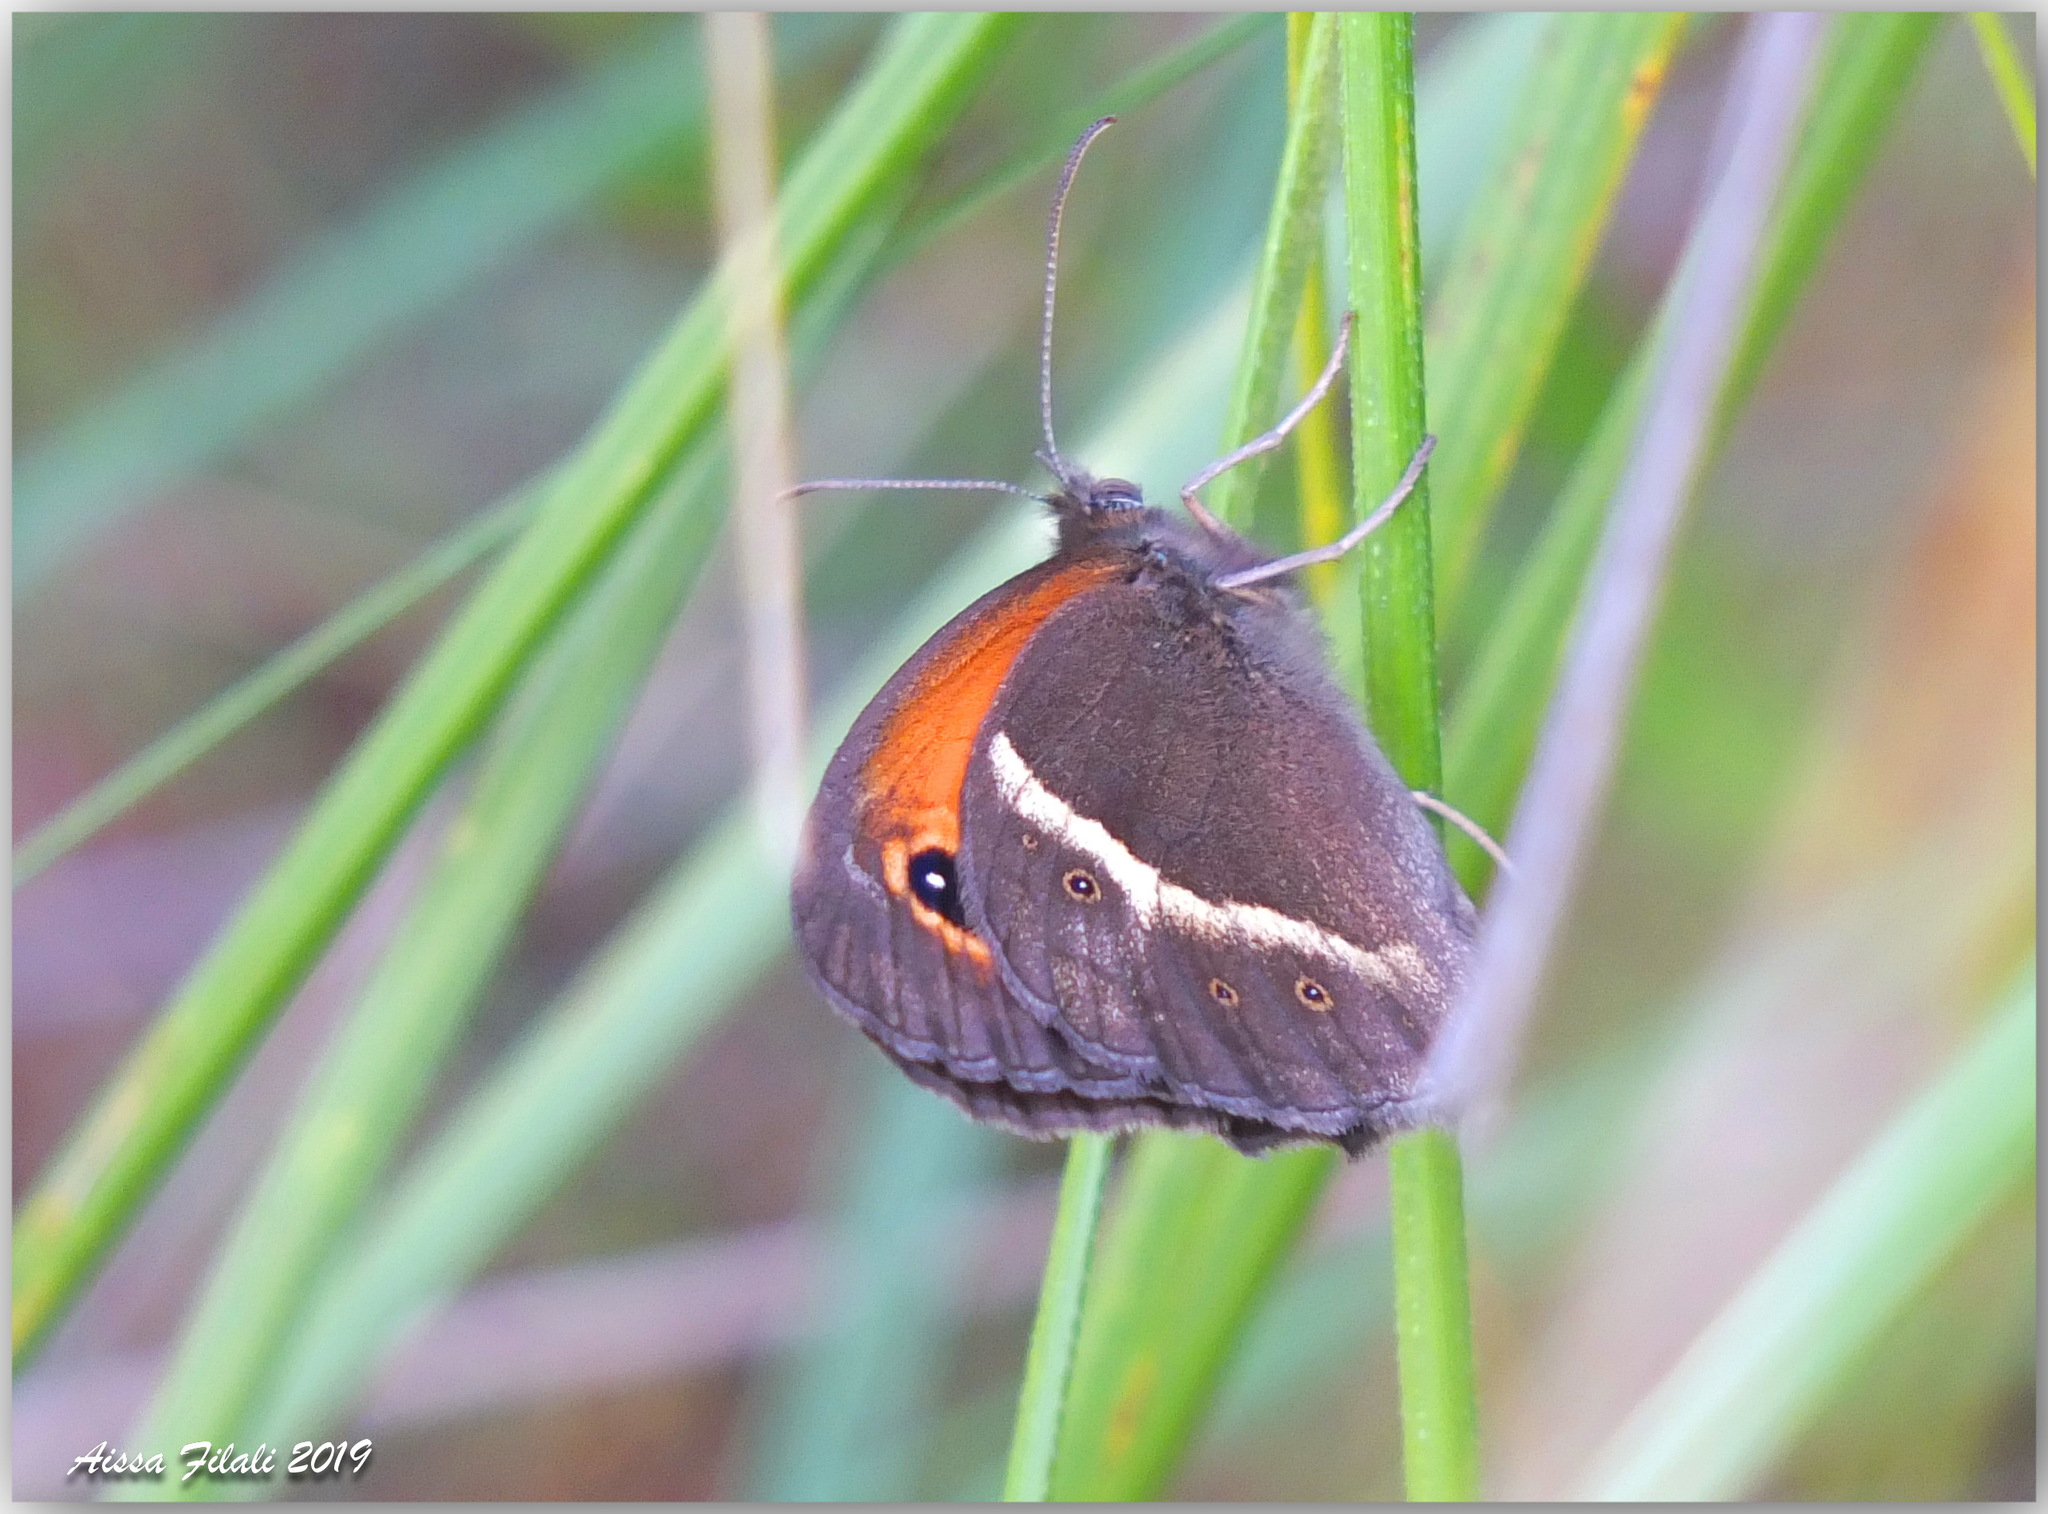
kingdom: Animalia
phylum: Arthropoda
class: Insecta
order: Lepidoptera
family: Nymphalidae
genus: Pyronia
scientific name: Pyronia bathseba
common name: Spanish gatekeeper
